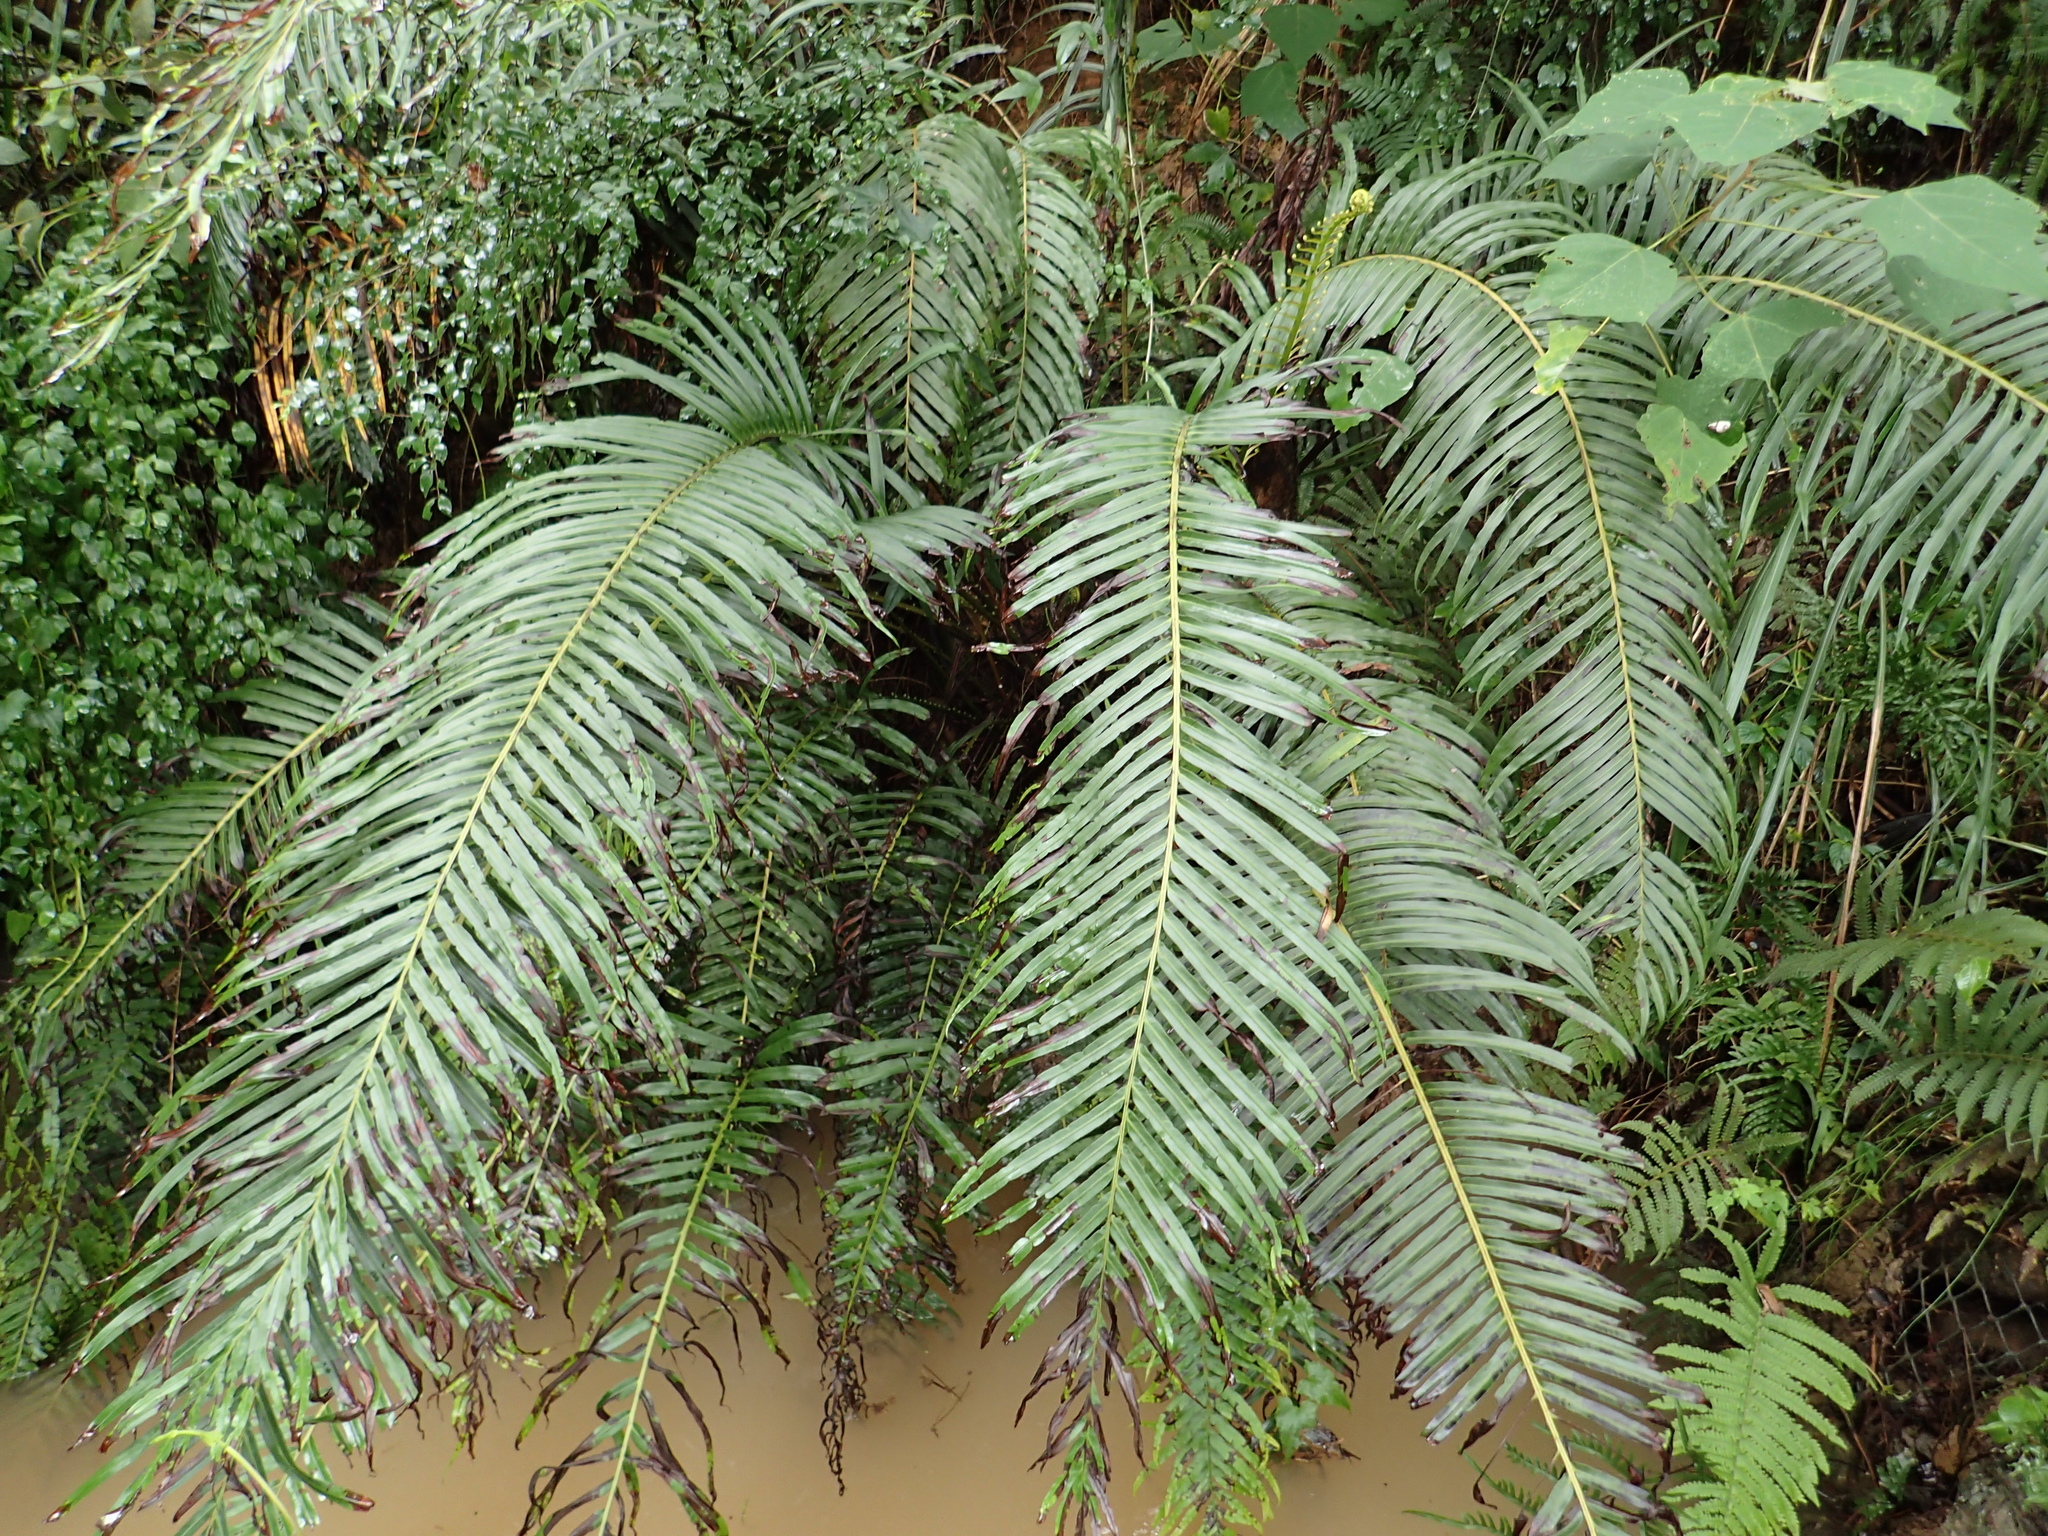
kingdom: Plantae
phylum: Tracheophyta
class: Polypodiopsida
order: Polypodiales
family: Blechnaceae
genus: Blechnopsis
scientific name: Blechnopsis orientalis
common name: Oriental blechnum
